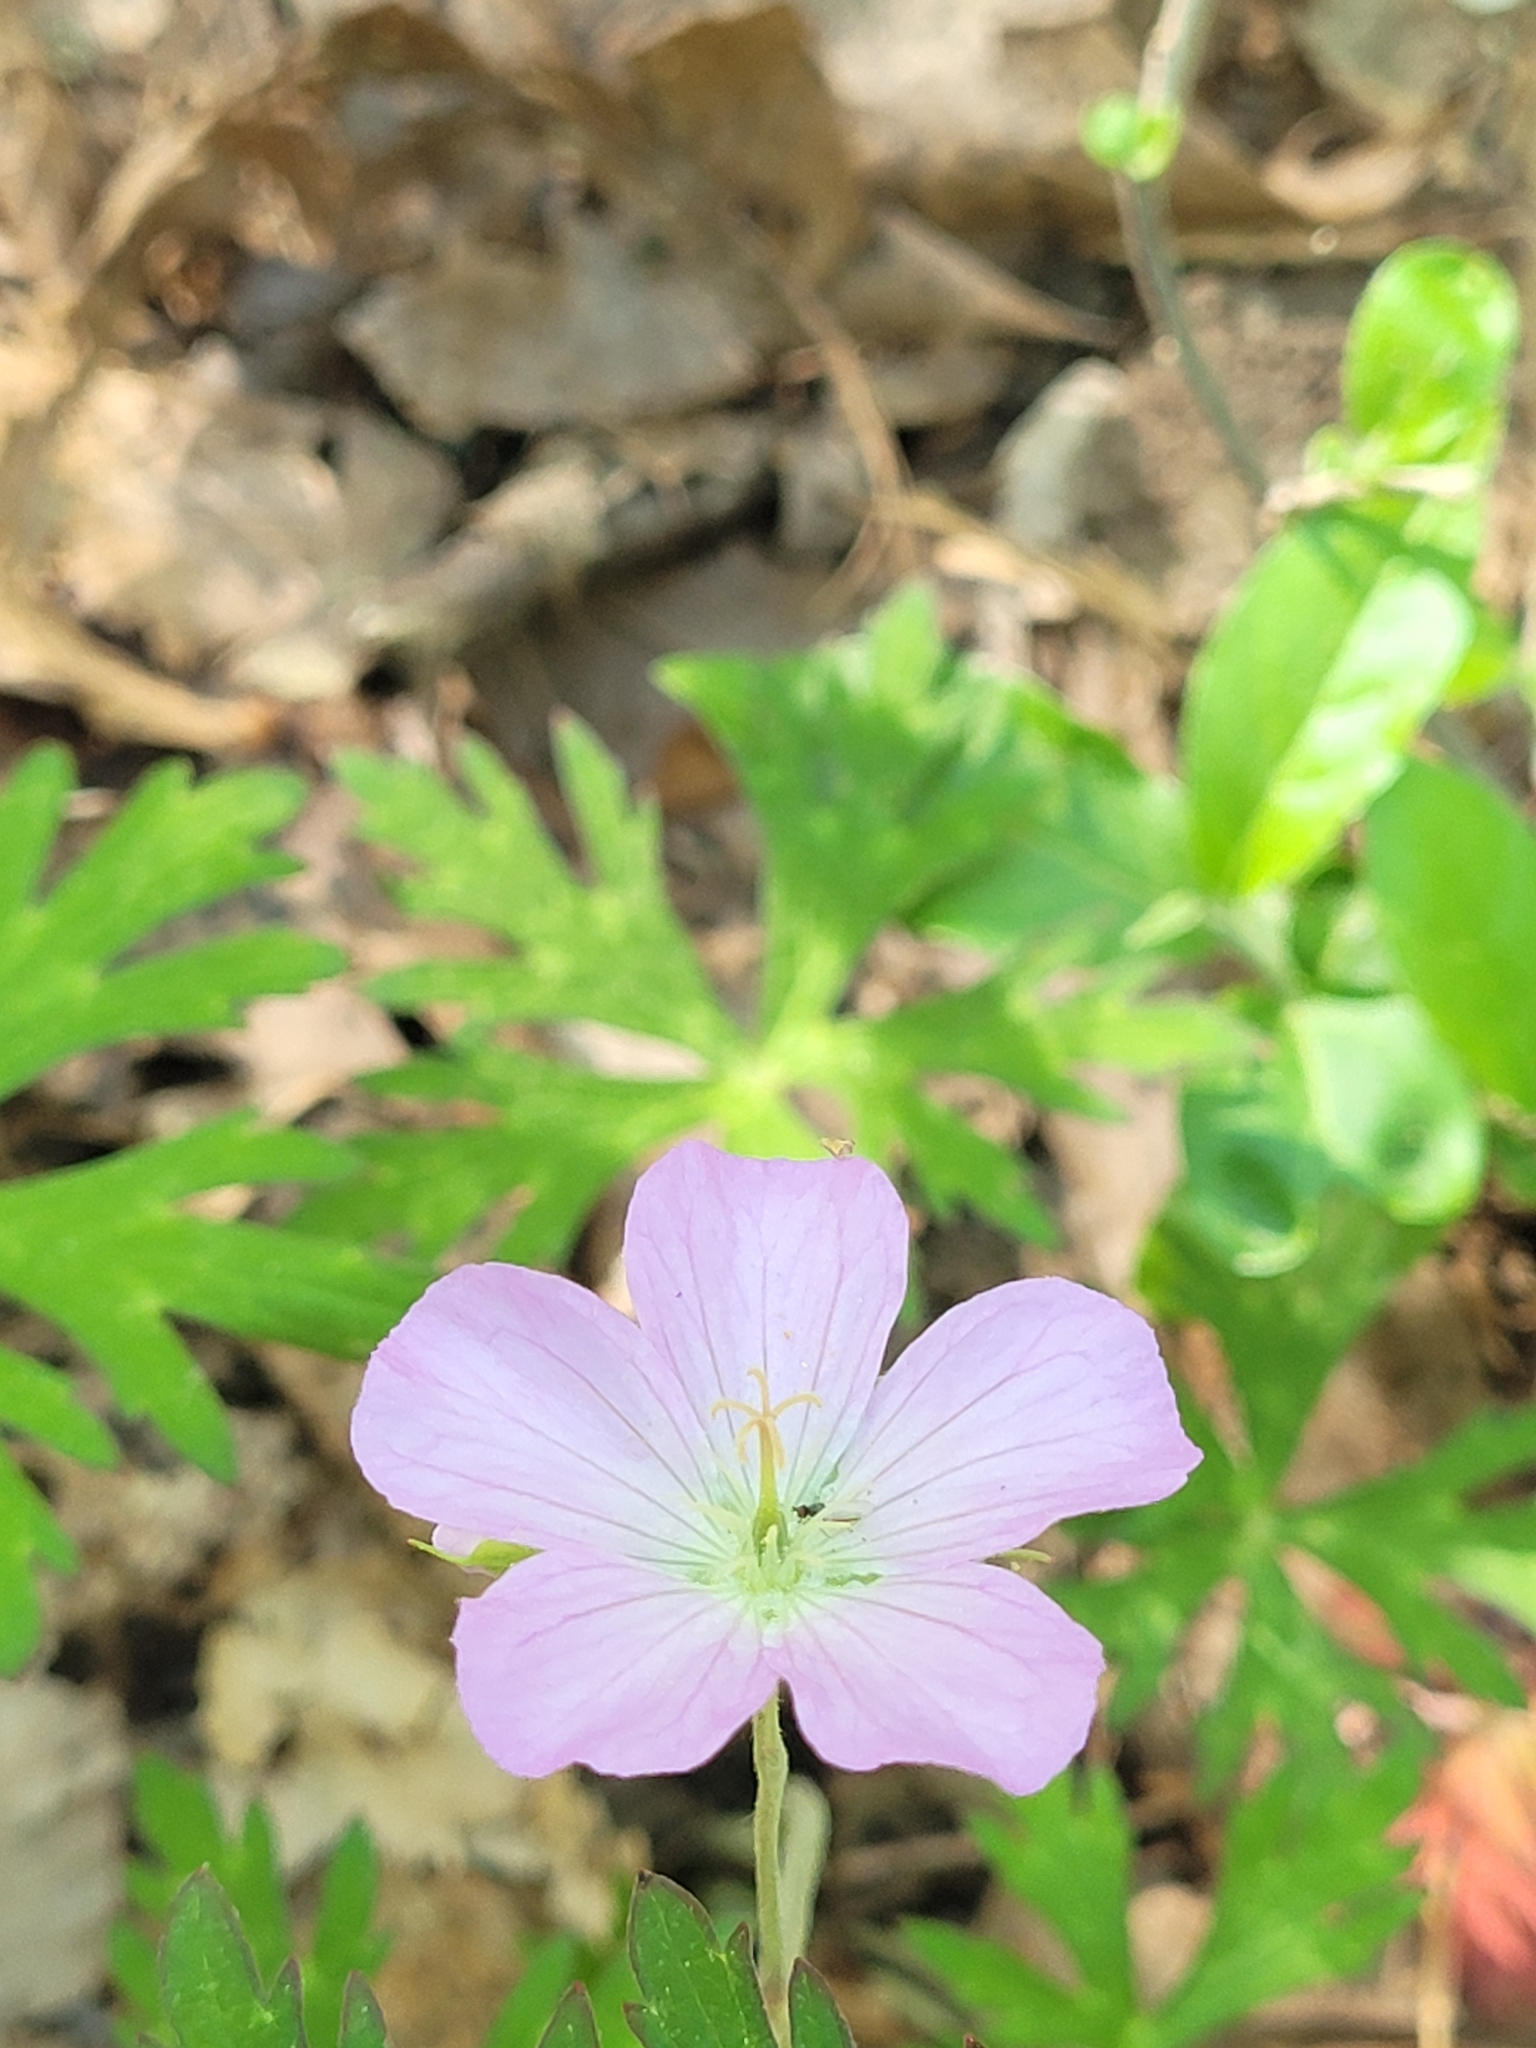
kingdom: Plantae
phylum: Tracheophyta
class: Magnoliopsida
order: Geraniales
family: Geraniaceae
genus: Geranium
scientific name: Geranium maculatum
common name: Spotted geranium
